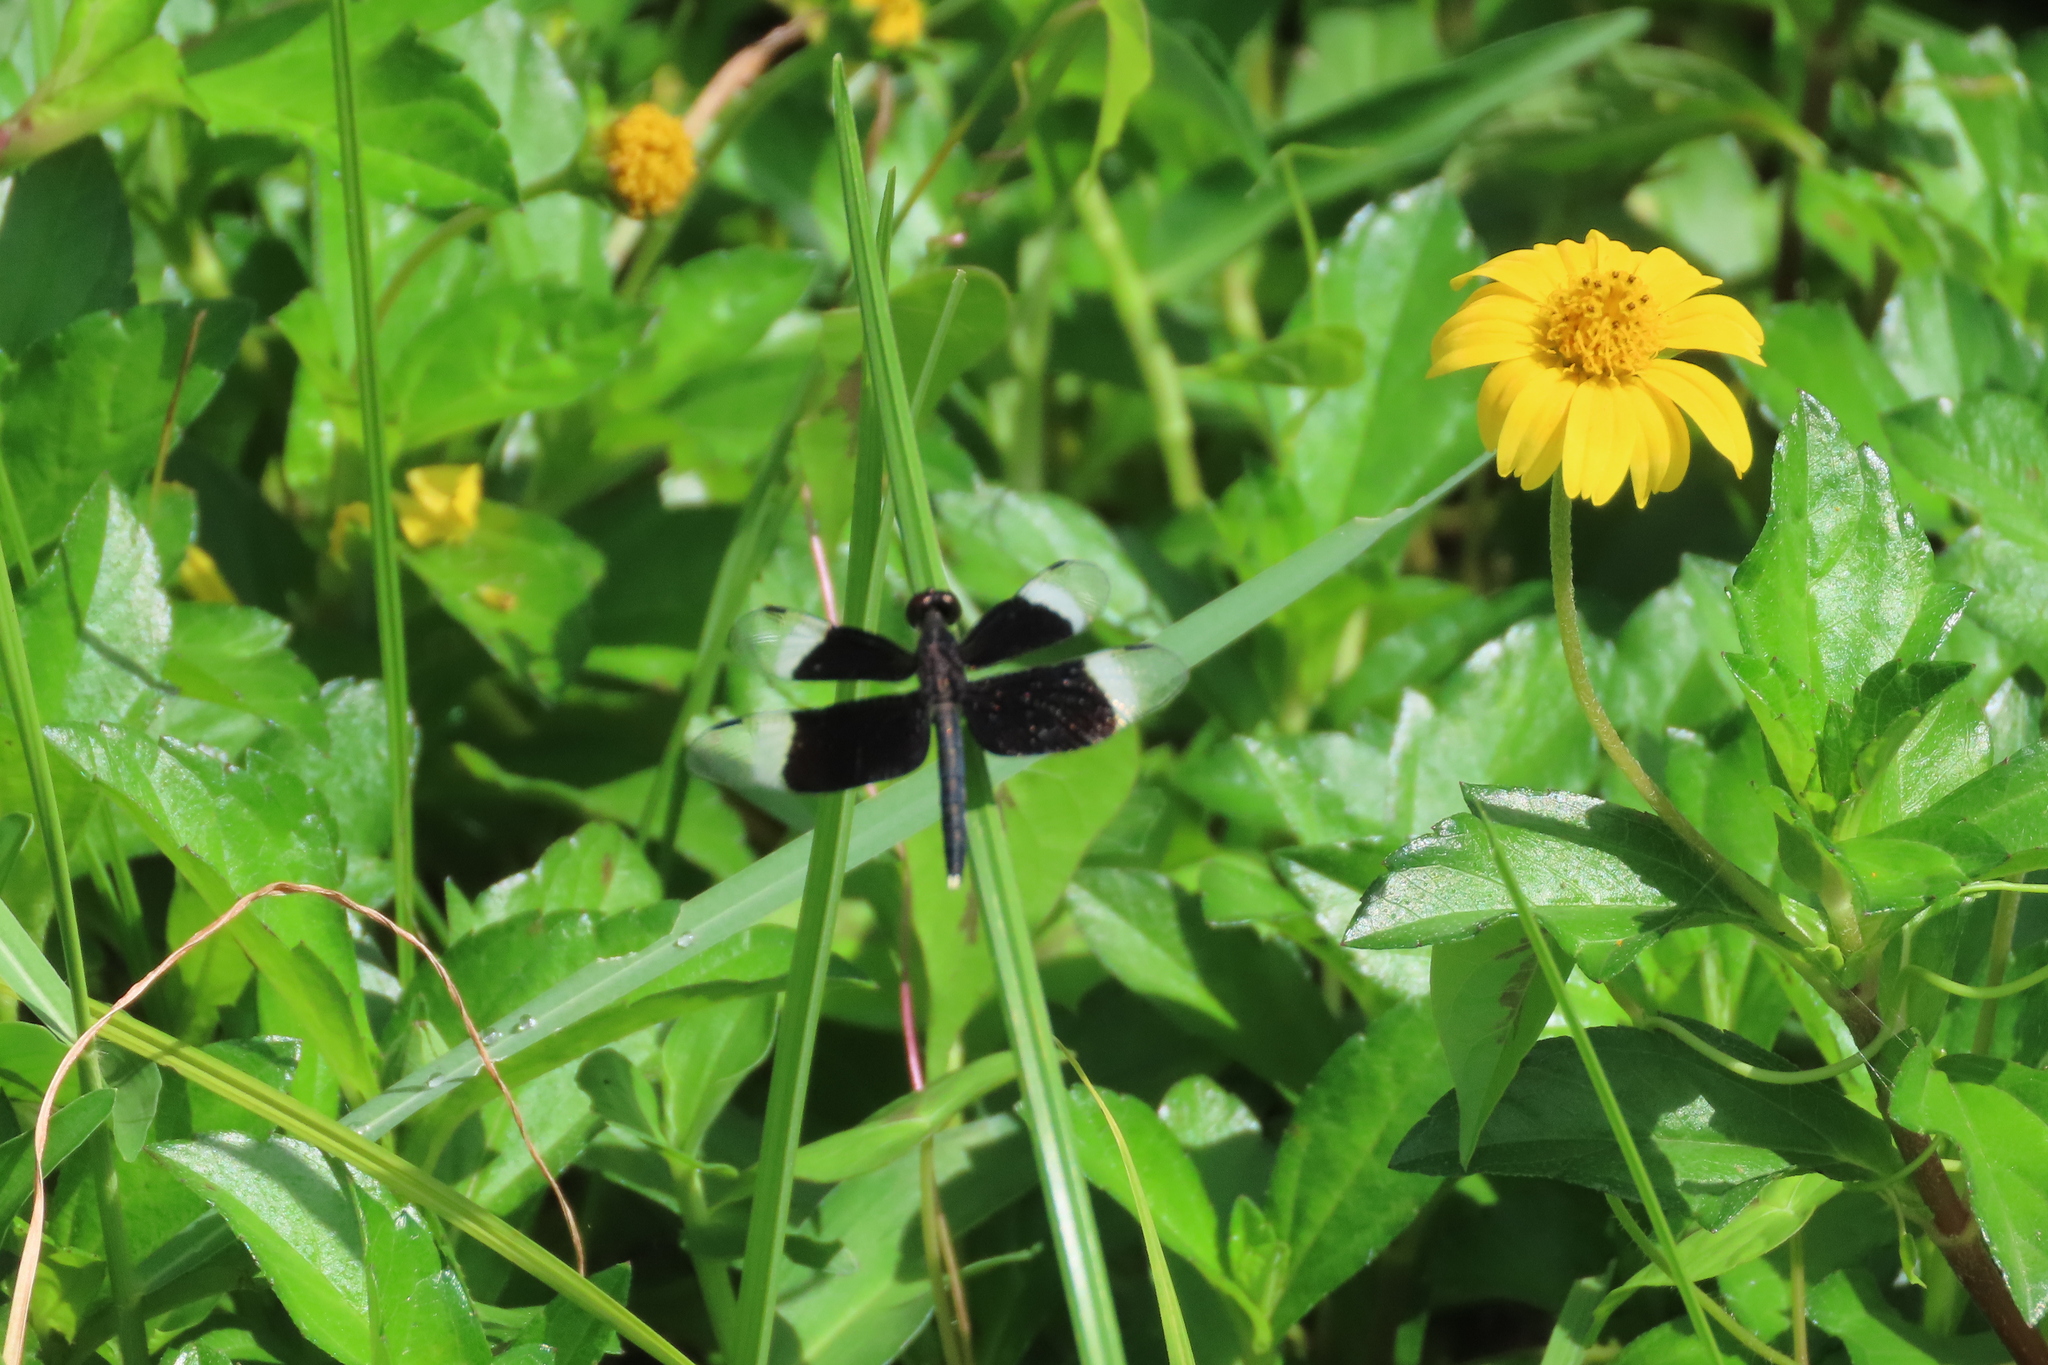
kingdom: Animalia
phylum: Arthropoda
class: Insecta
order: Odonata
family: Libellulidae
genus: Neurothemis
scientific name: Neurothemis tullia
